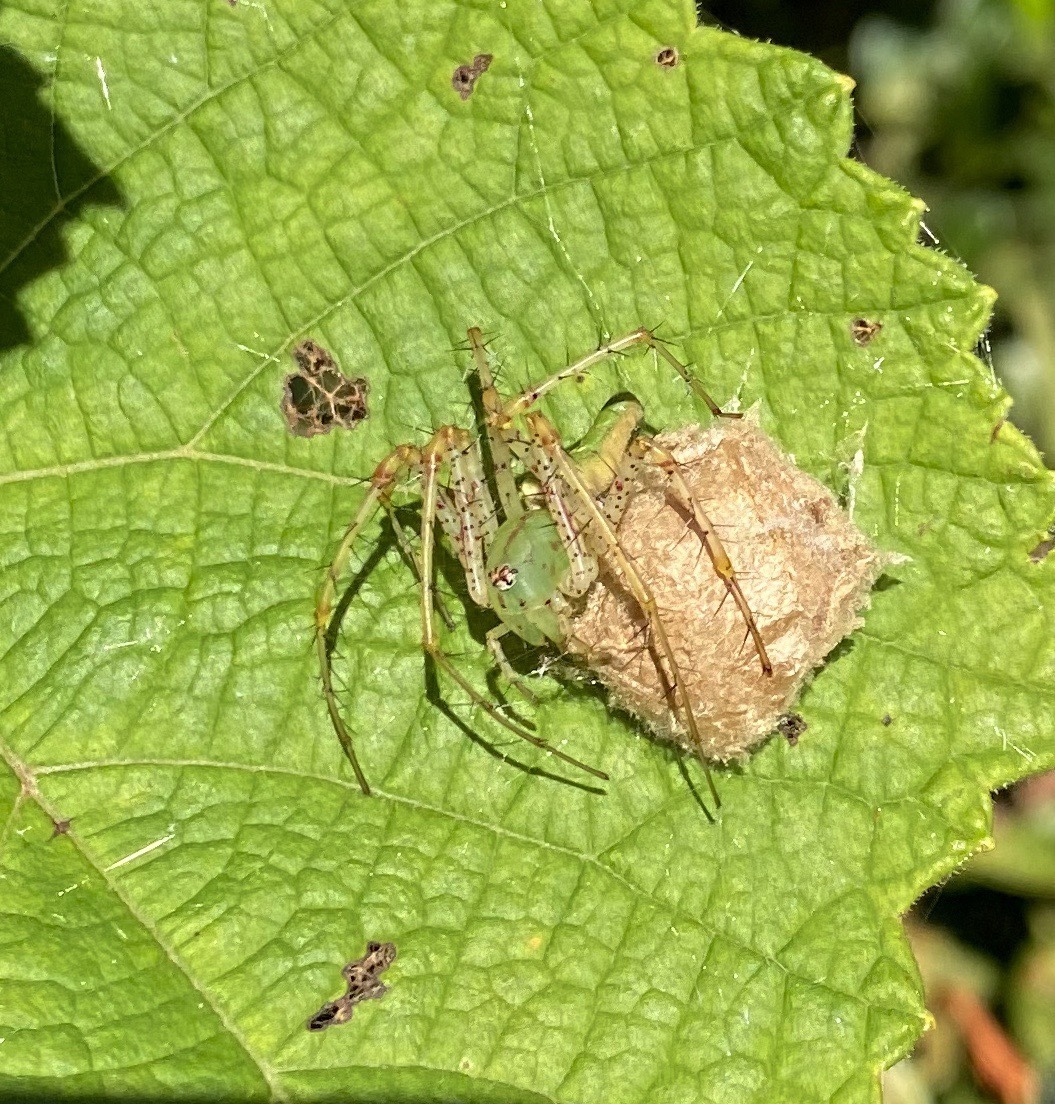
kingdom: Animalia
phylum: Arthropoda
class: Arachnida
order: Araneae
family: Oxyopidae
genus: Peucetia
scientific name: Peucetia viridans
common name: Lynx spiders
